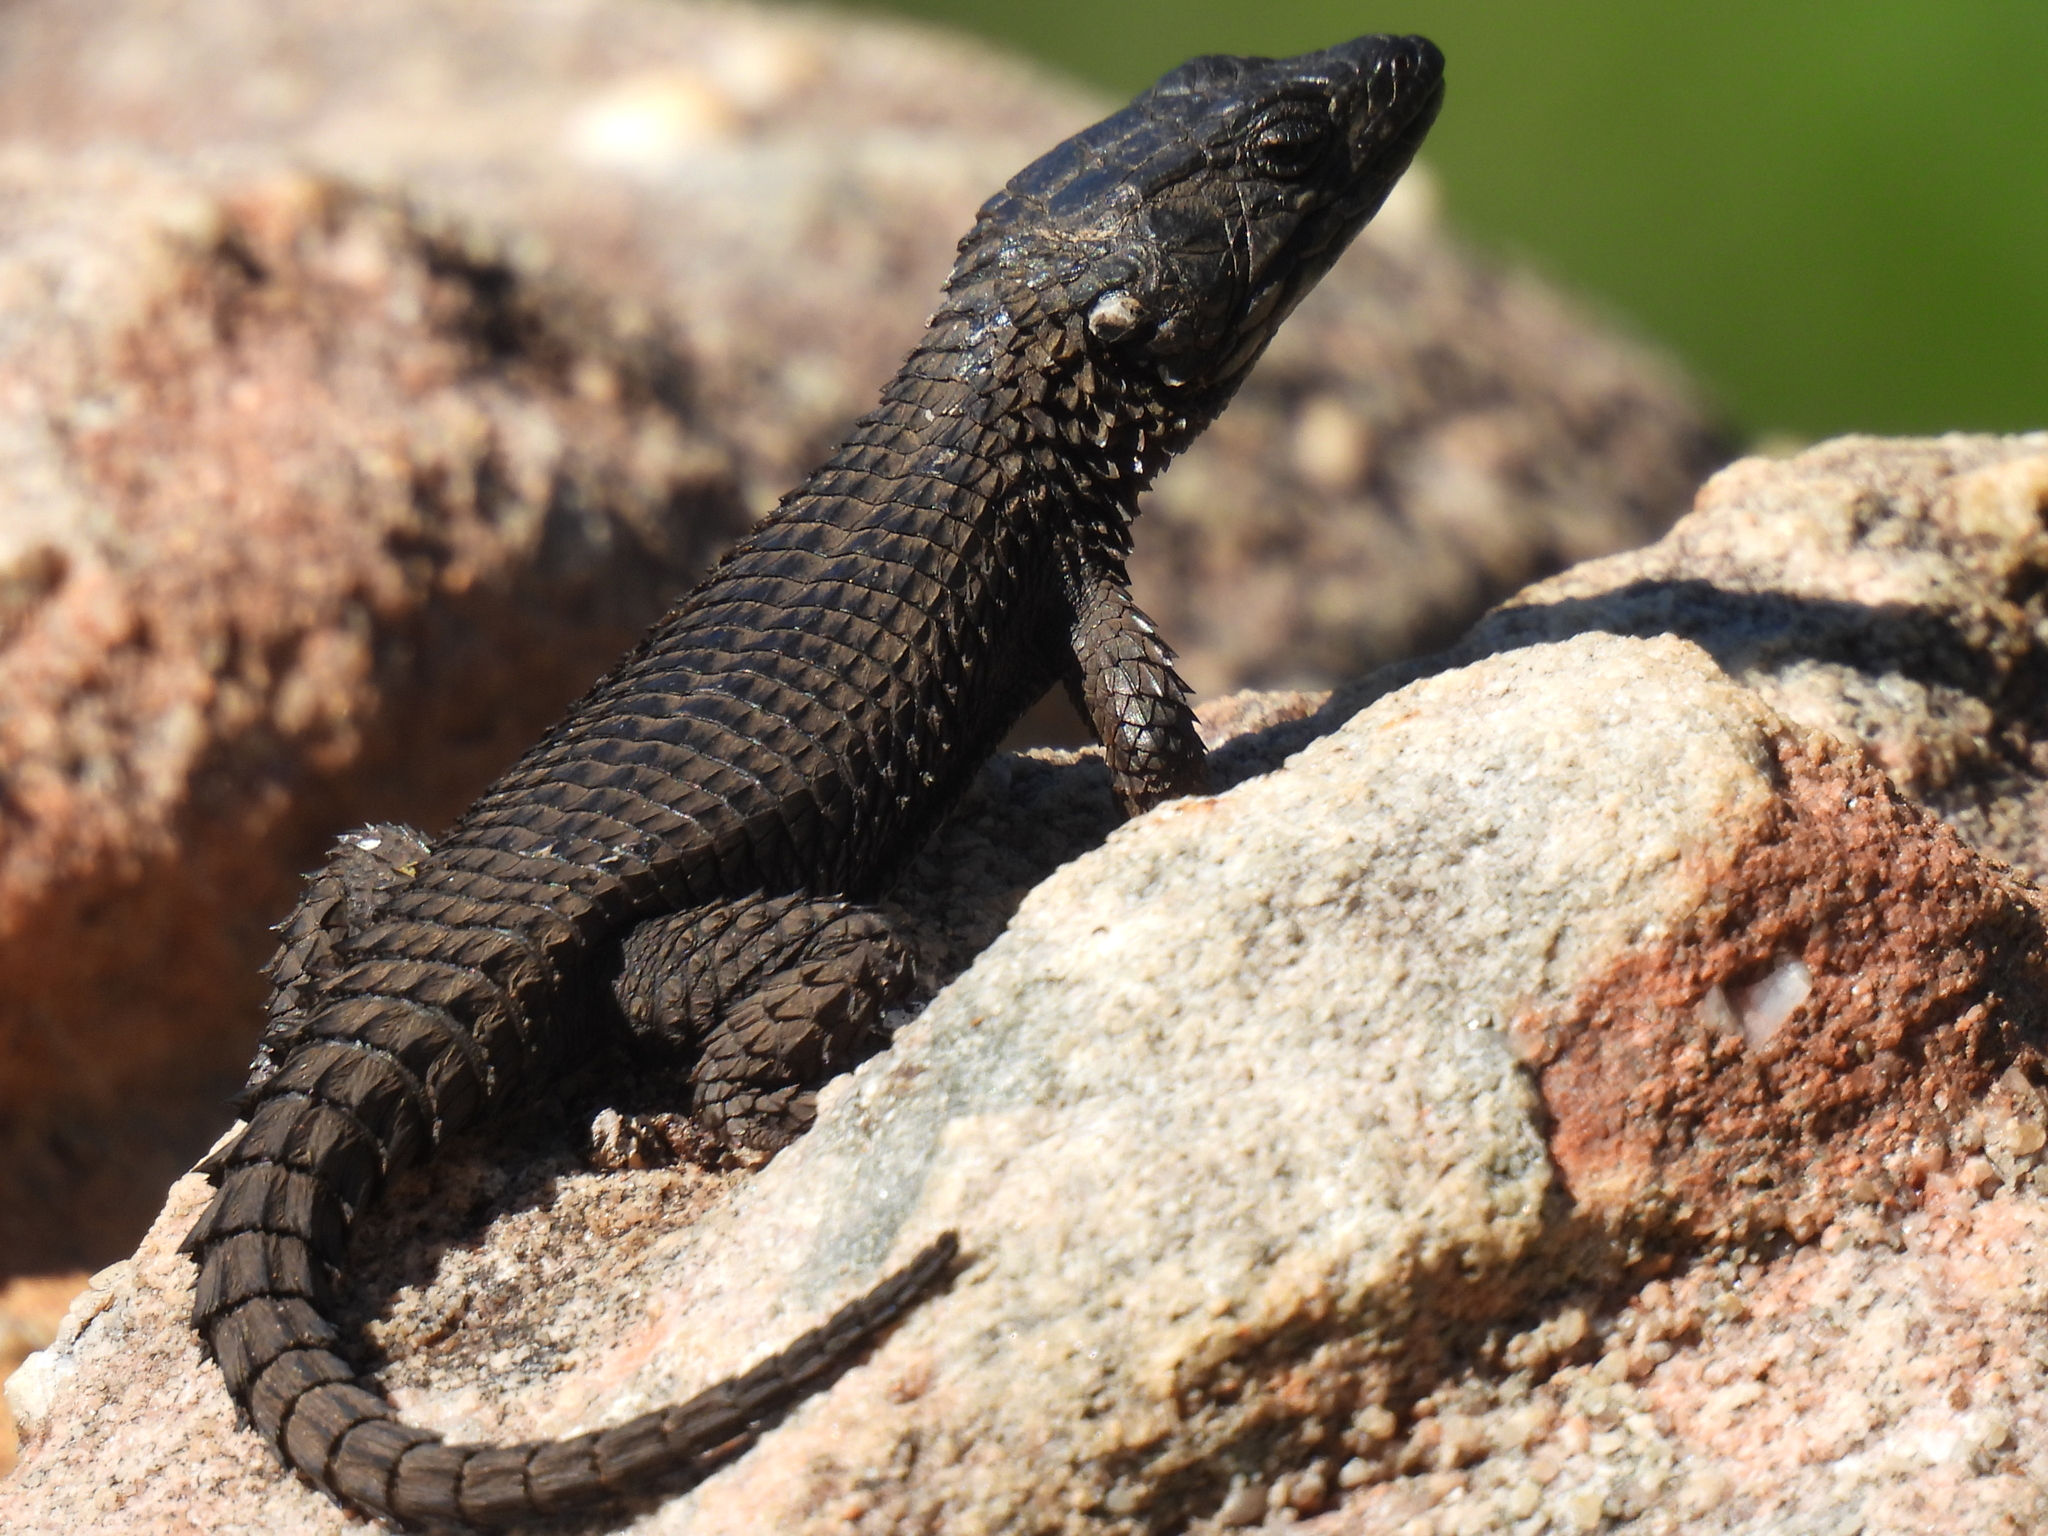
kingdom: Animalia
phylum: Chordata
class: Squamata
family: Cordylidae
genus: Cordylus
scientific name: Cordylus niger
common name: Black girdled lizard
